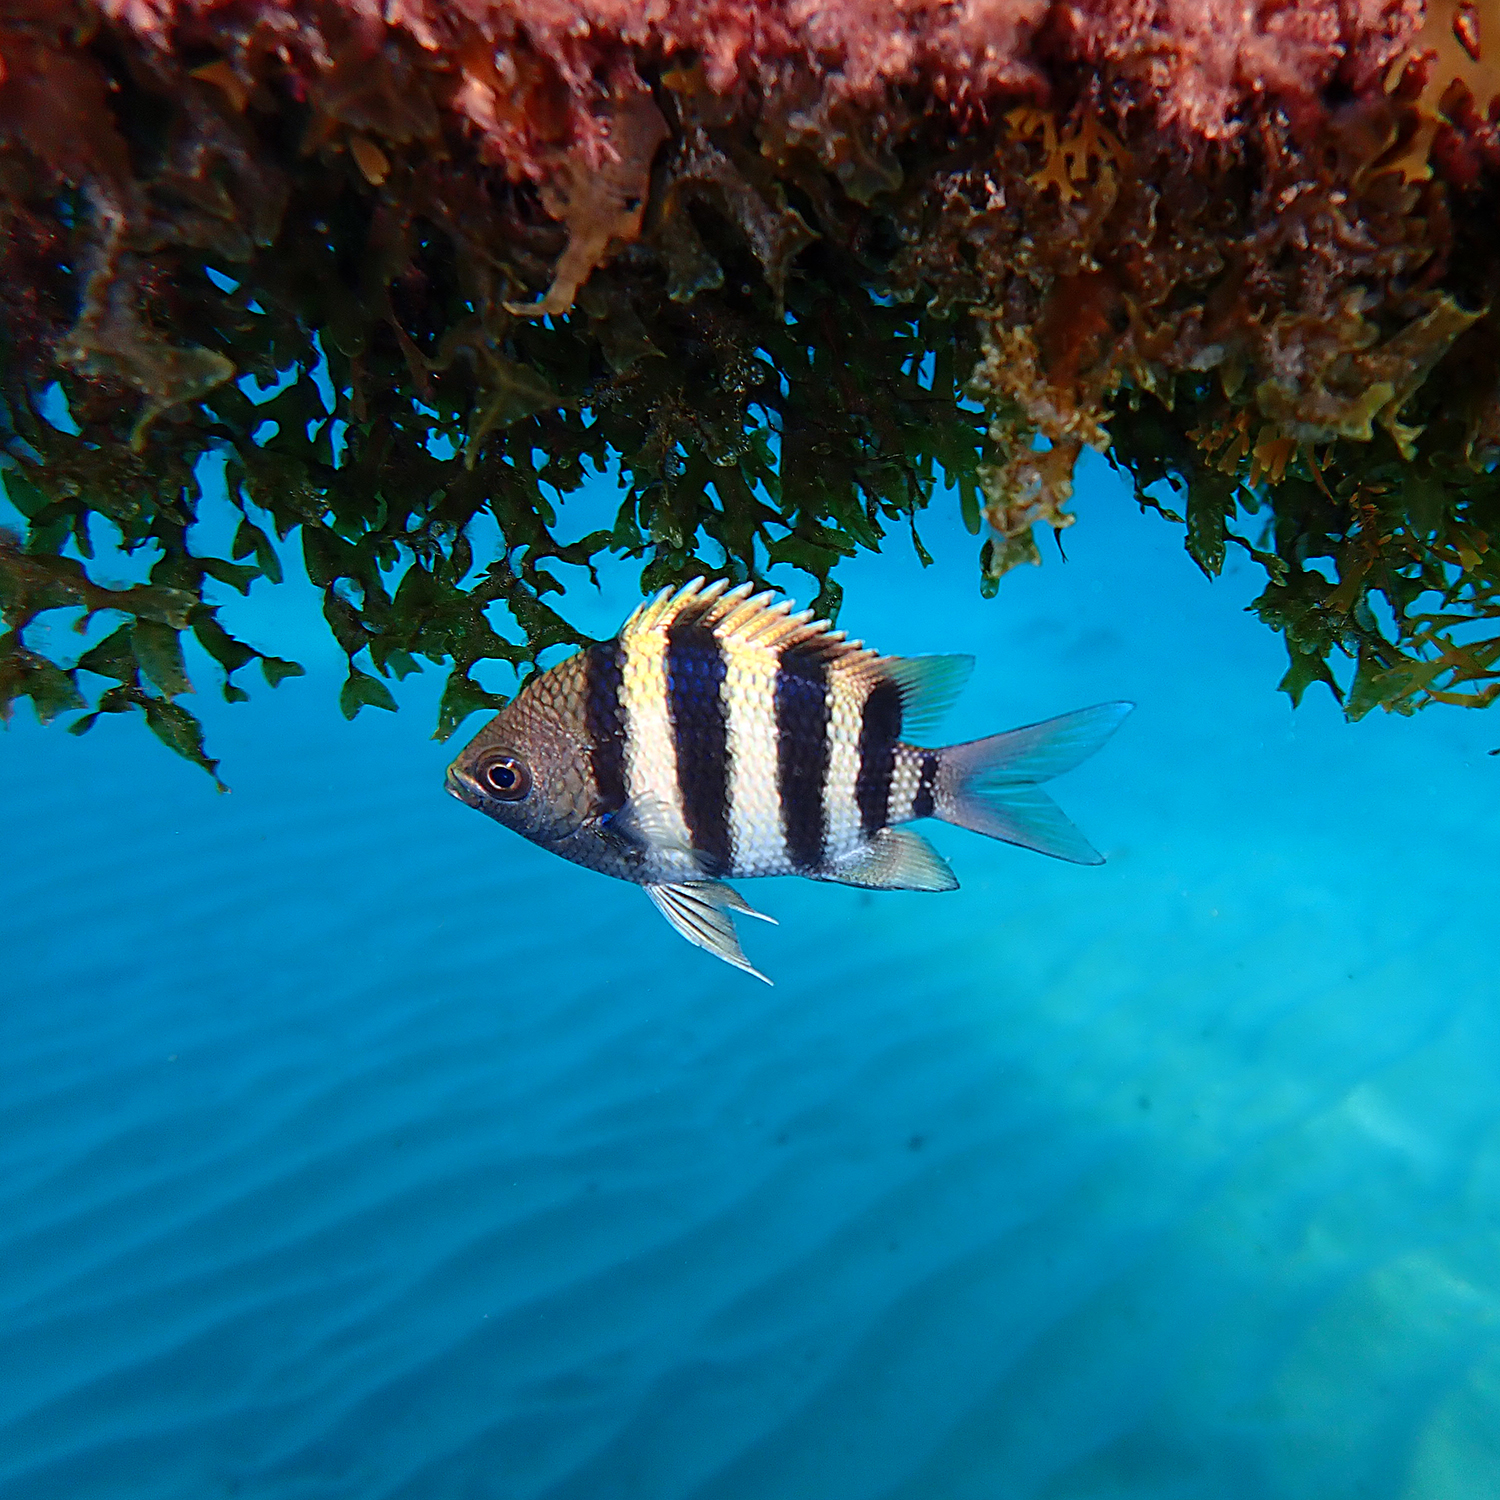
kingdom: Animalia
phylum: Chordata
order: Perciformes
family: Pomacentridae
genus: Abudefduf
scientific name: Abudefduf vaigiensis
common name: Indo-pacific sergeant
